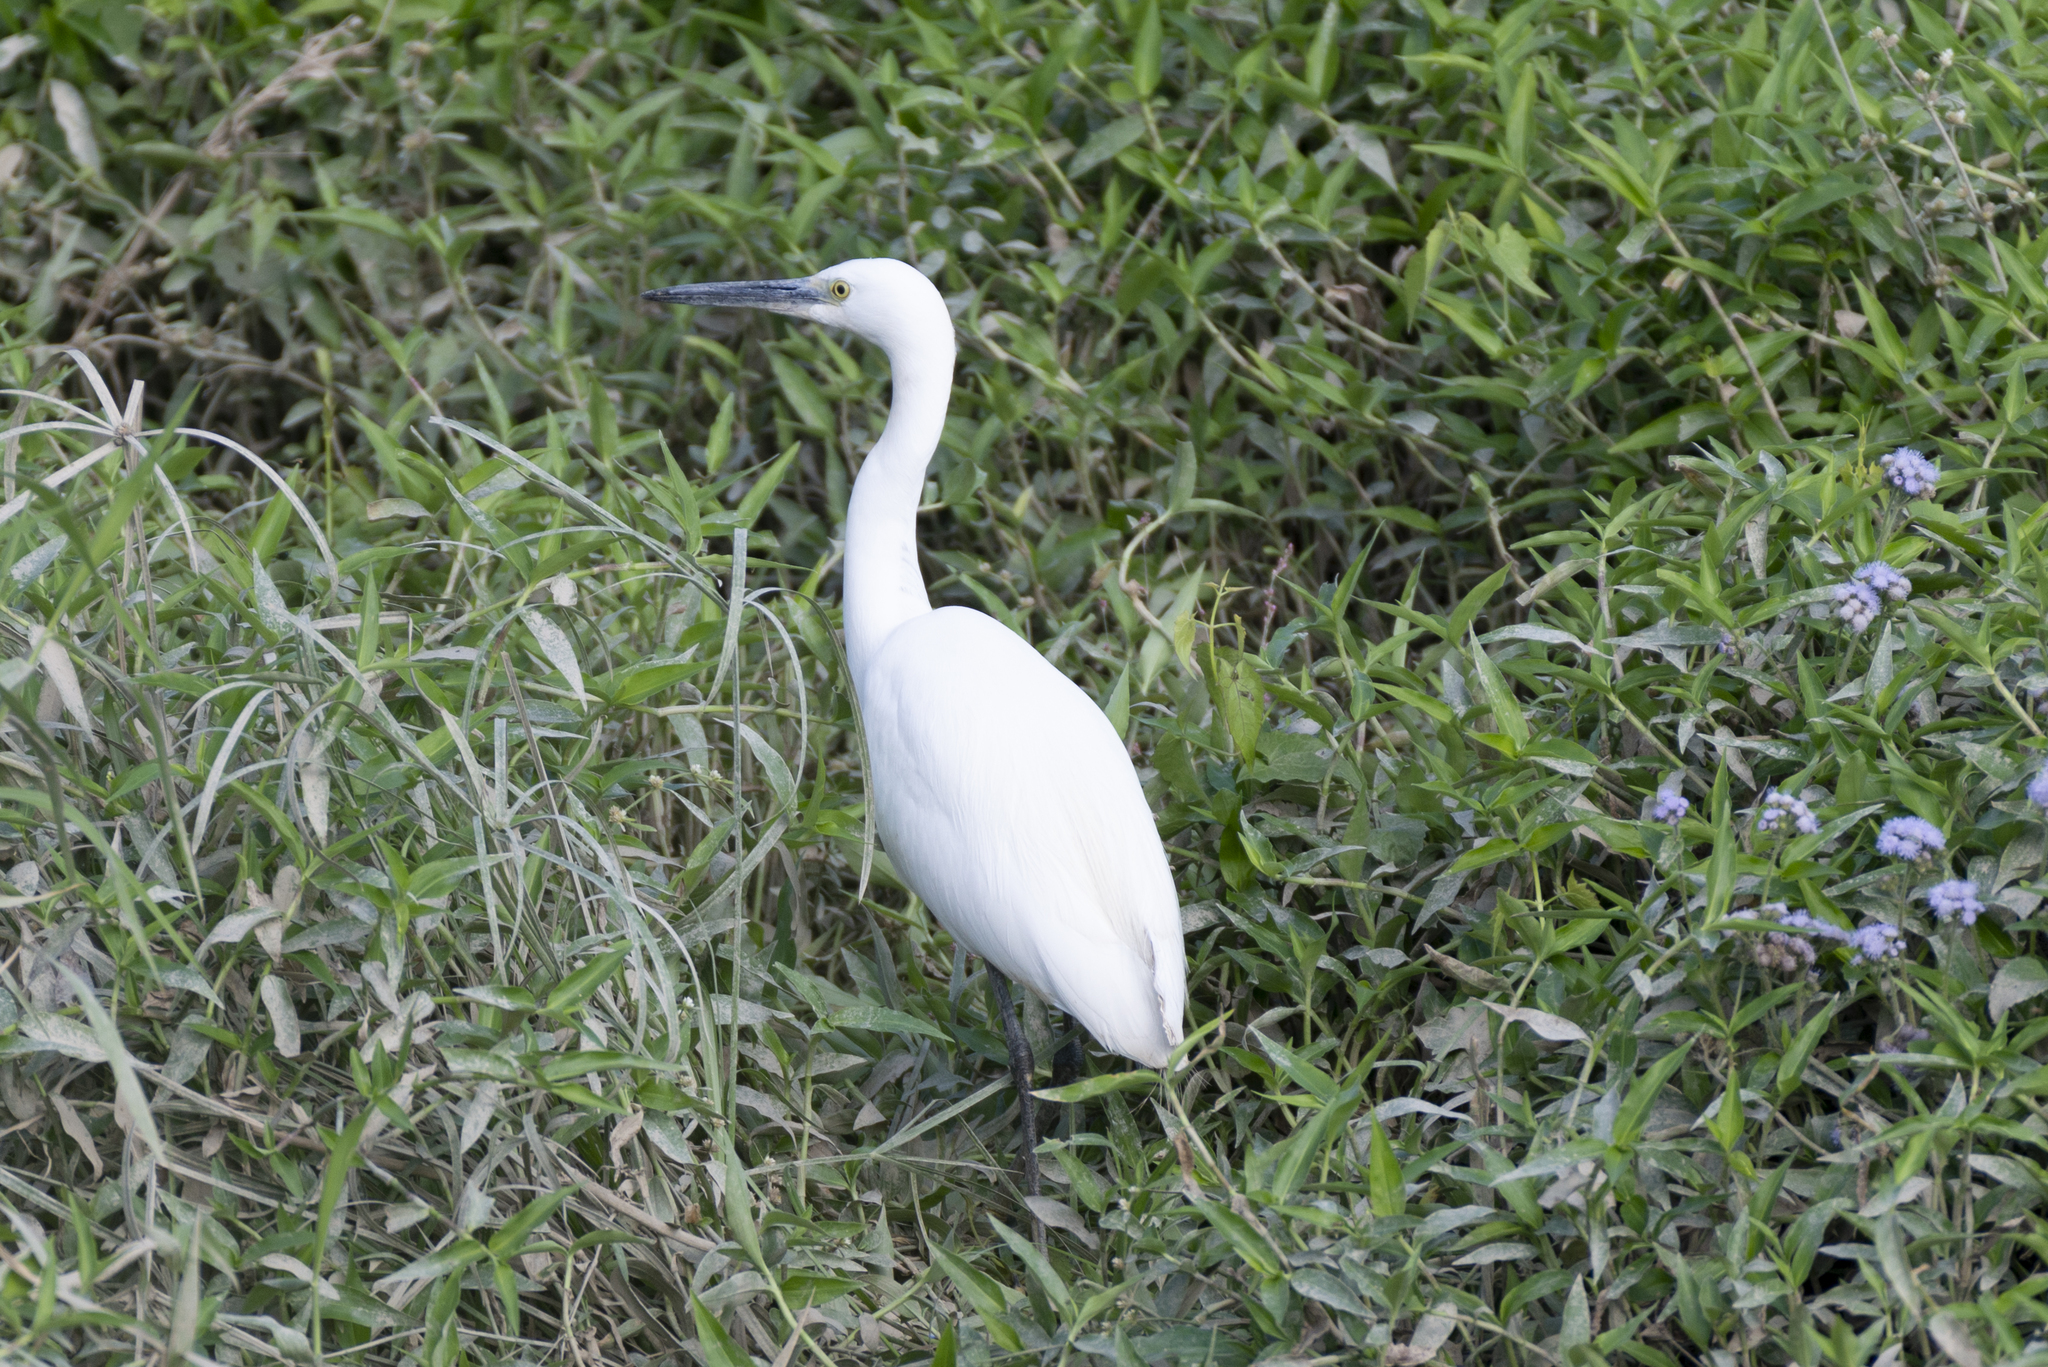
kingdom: Animalia
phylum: Chordata
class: Aves
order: Pelecaniformes
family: Ardeidae
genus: Egretta
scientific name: Egretta garzetta
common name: Little egret
